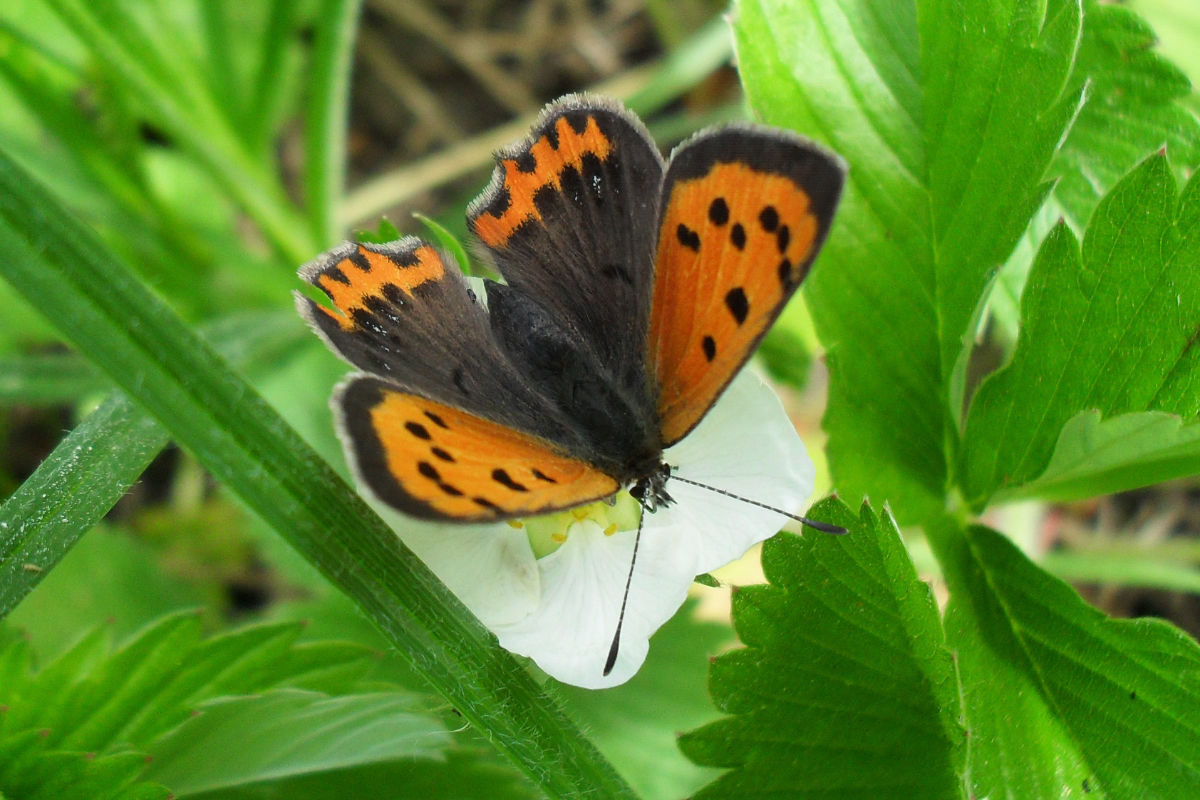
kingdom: Animalia
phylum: Arthropoda
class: Insecta
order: Lepidoptera
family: Lycaenidae
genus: Lycaena
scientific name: Lycaena phlaeas
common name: Small copper
